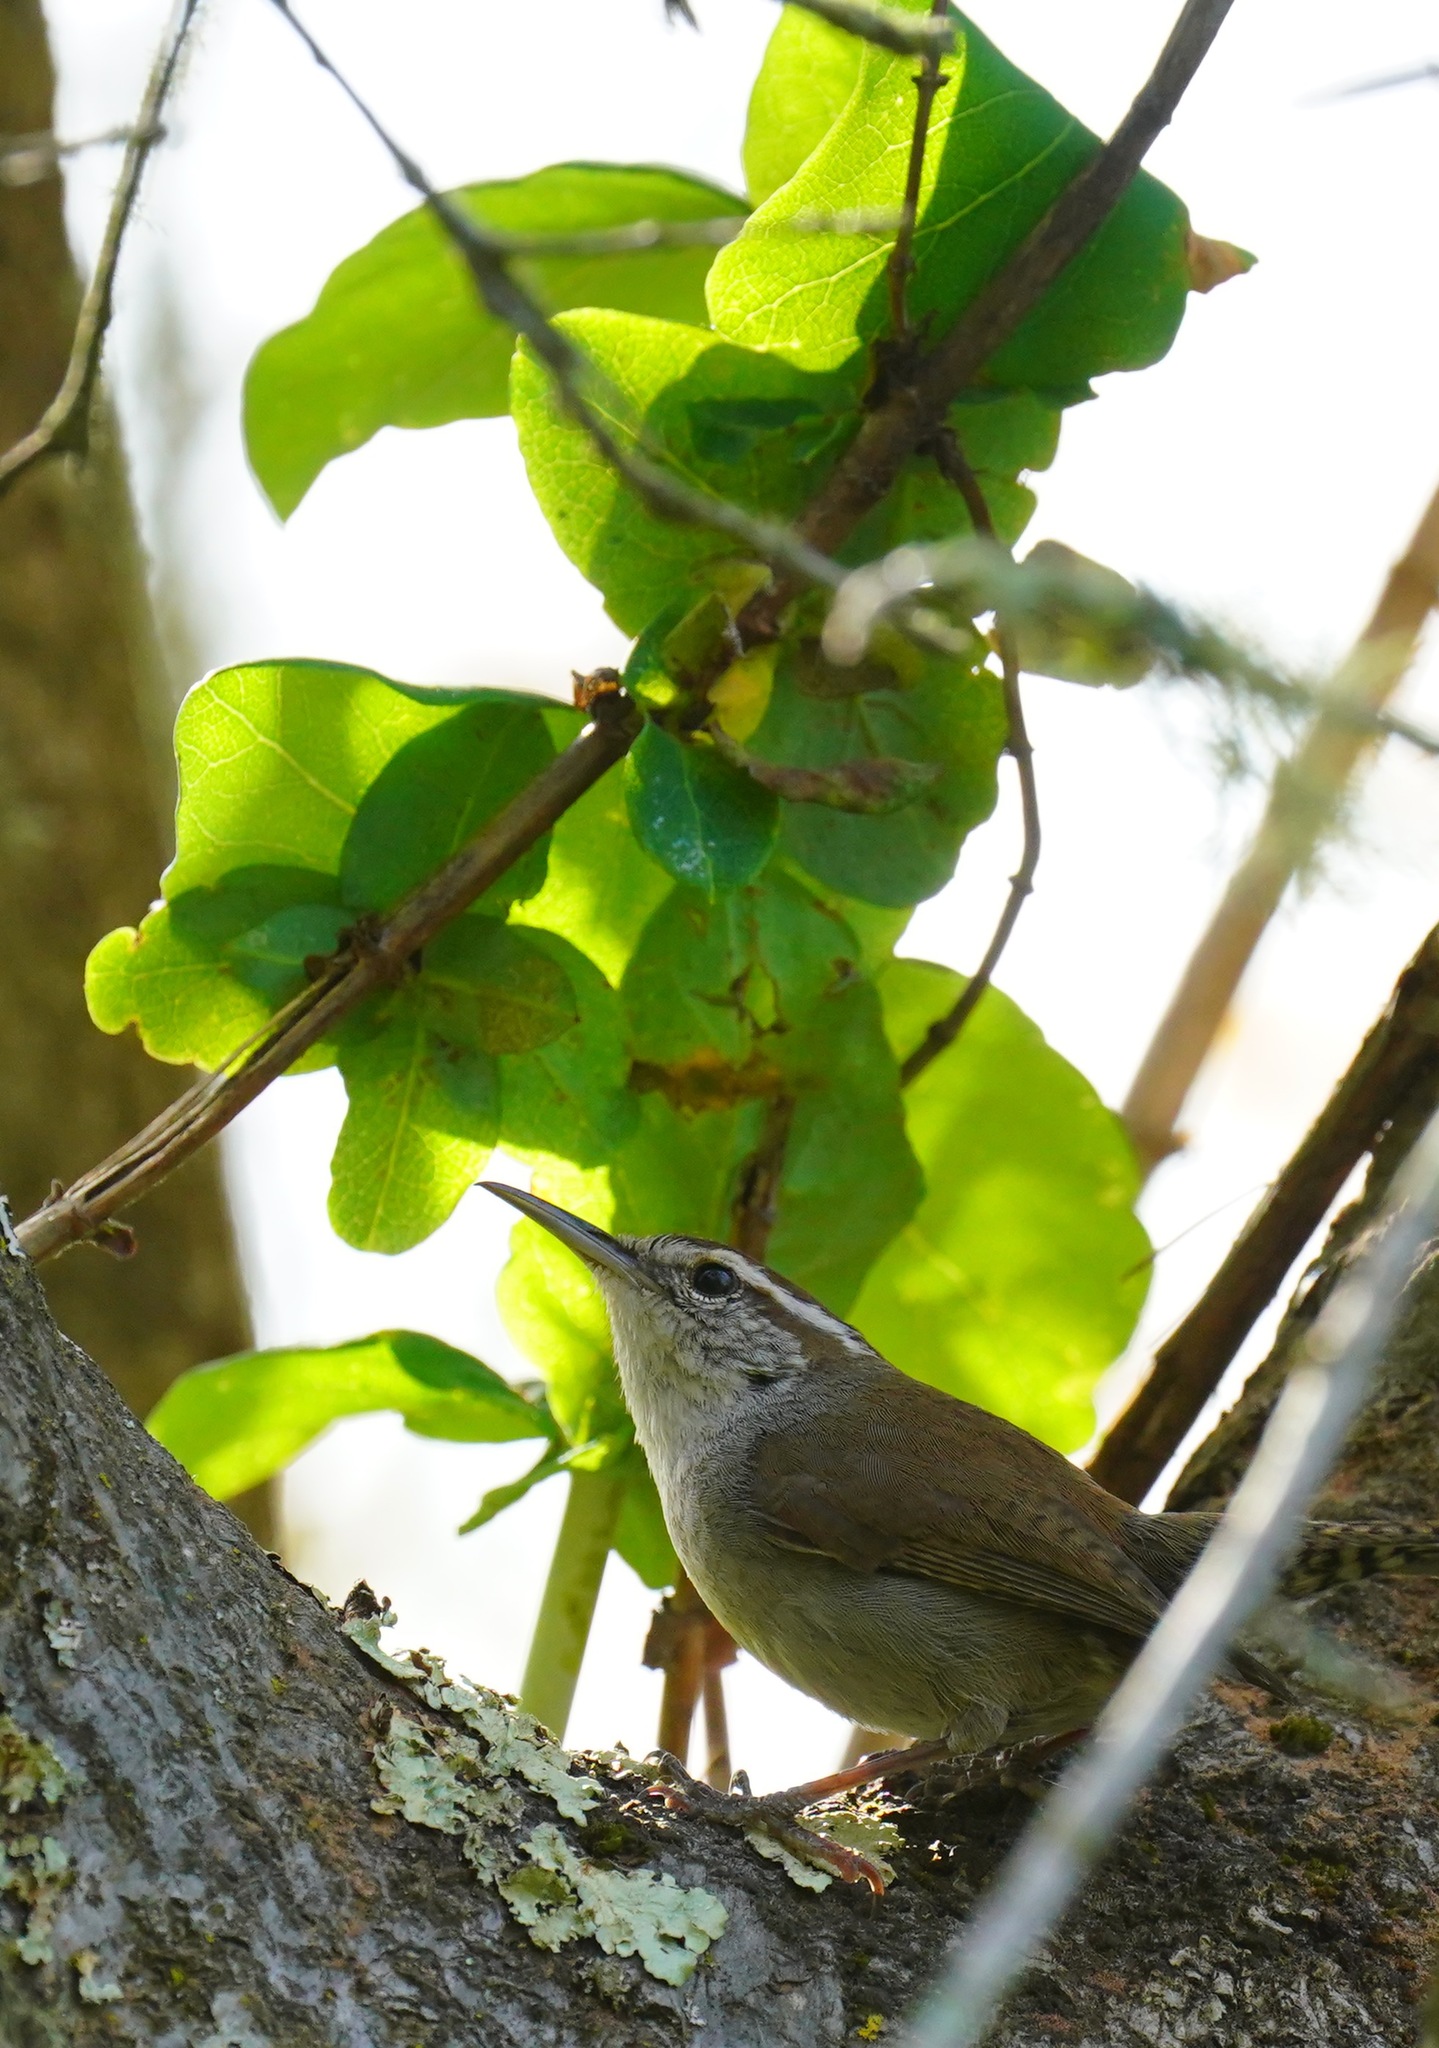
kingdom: Animalia
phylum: Chordata
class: Aves
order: Passeriformes
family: Troglodytidae
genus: Thryomanes
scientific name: Thryomanes bewickii
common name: Bewick's wren
